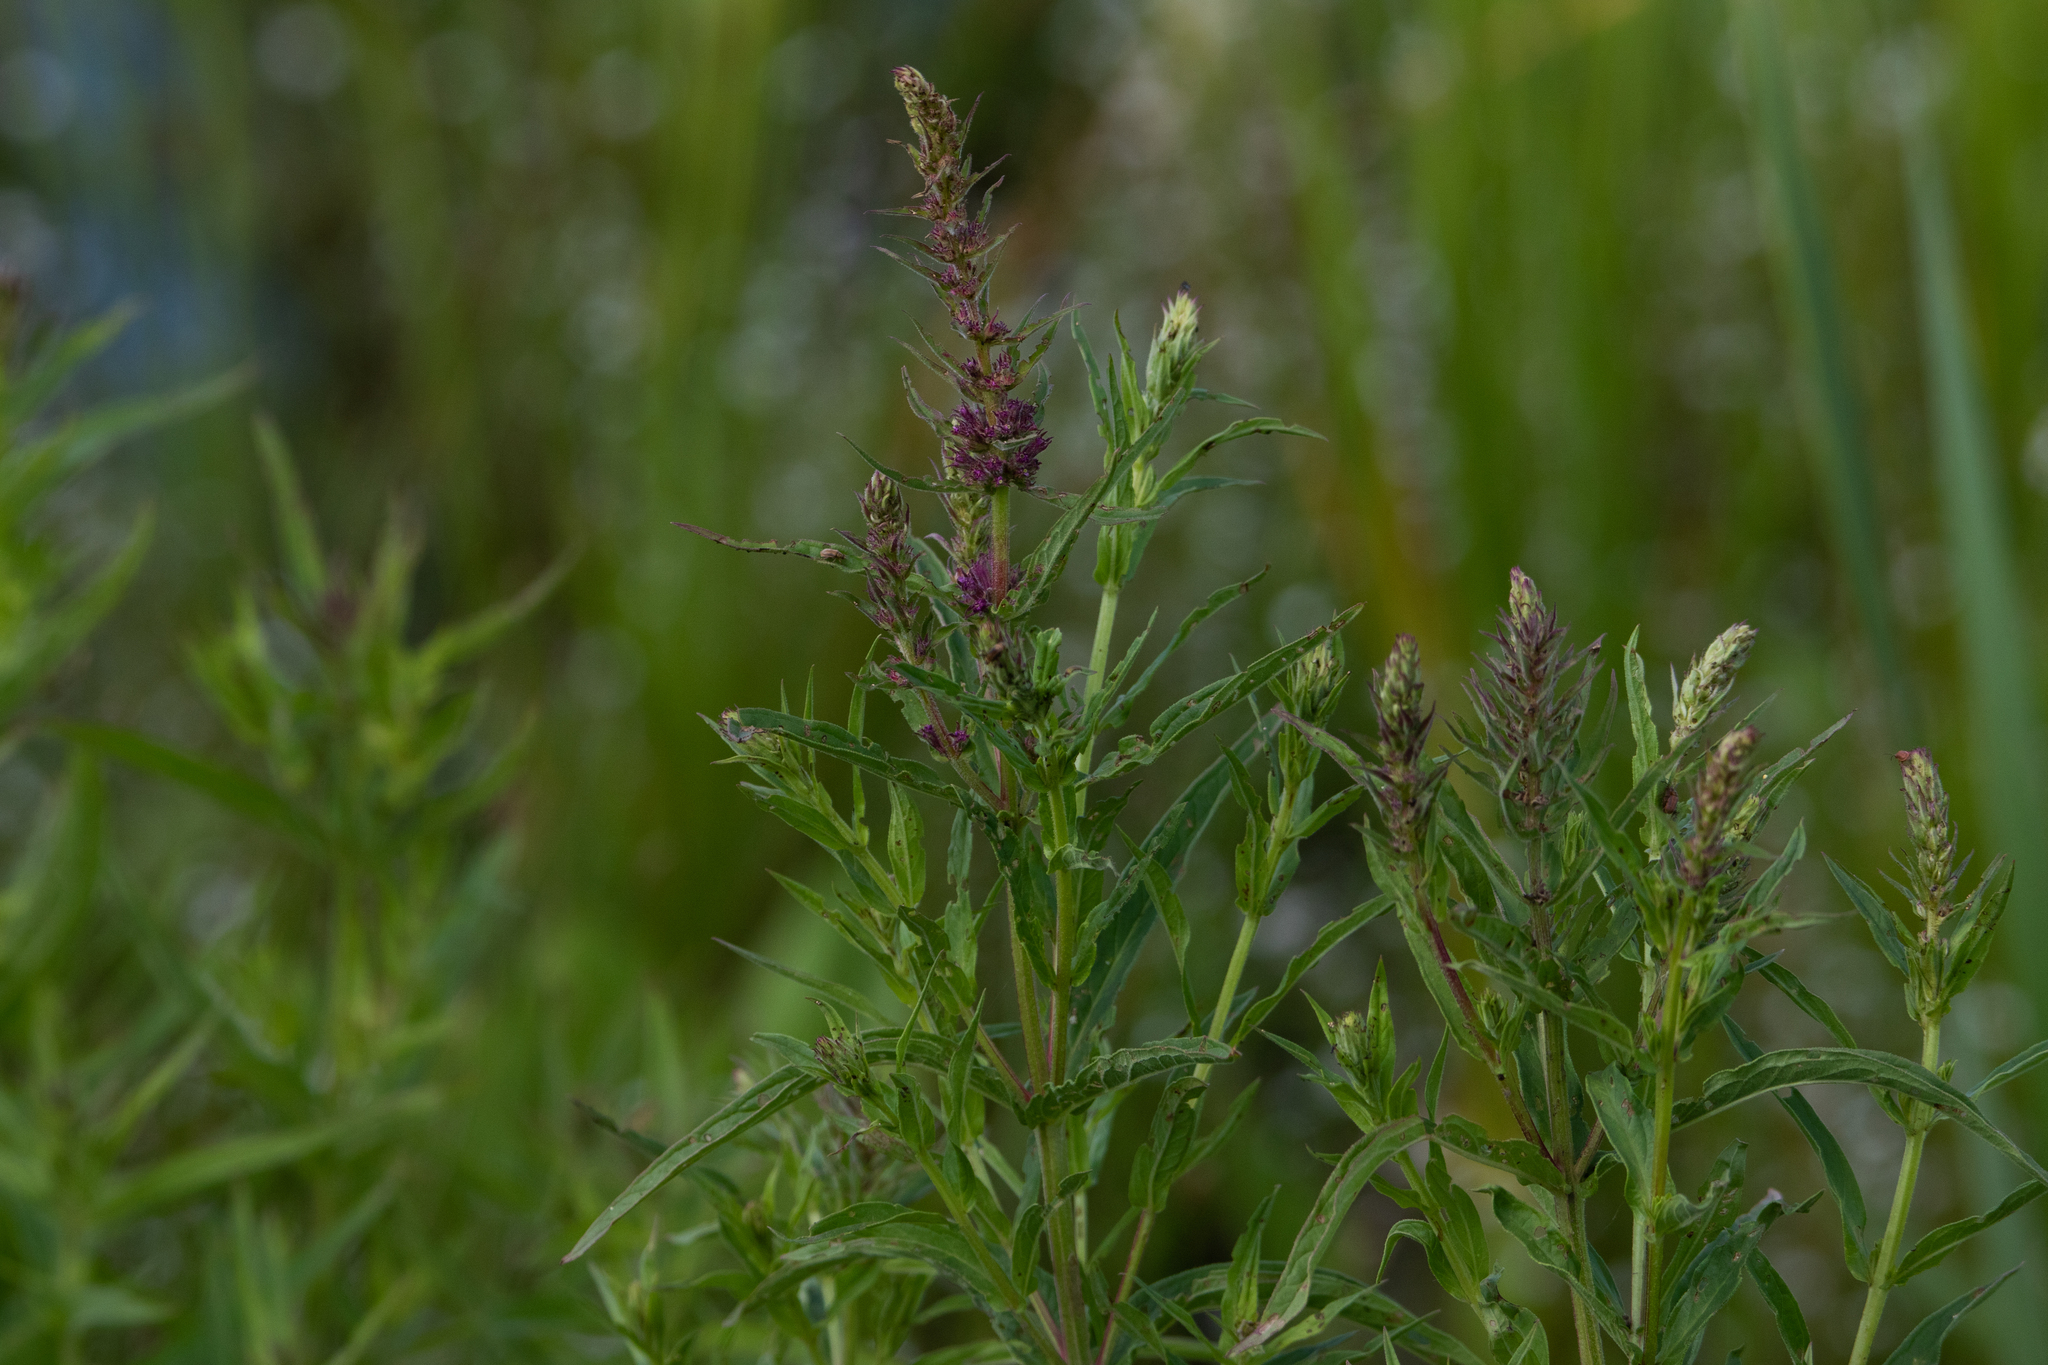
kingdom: Plantae
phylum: Tracheophyta
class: Magnoliopsida
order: Myrtales
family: Lythraceae
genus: Lythrum
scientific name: Lythrum salicaria
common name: Purple loosestrife
